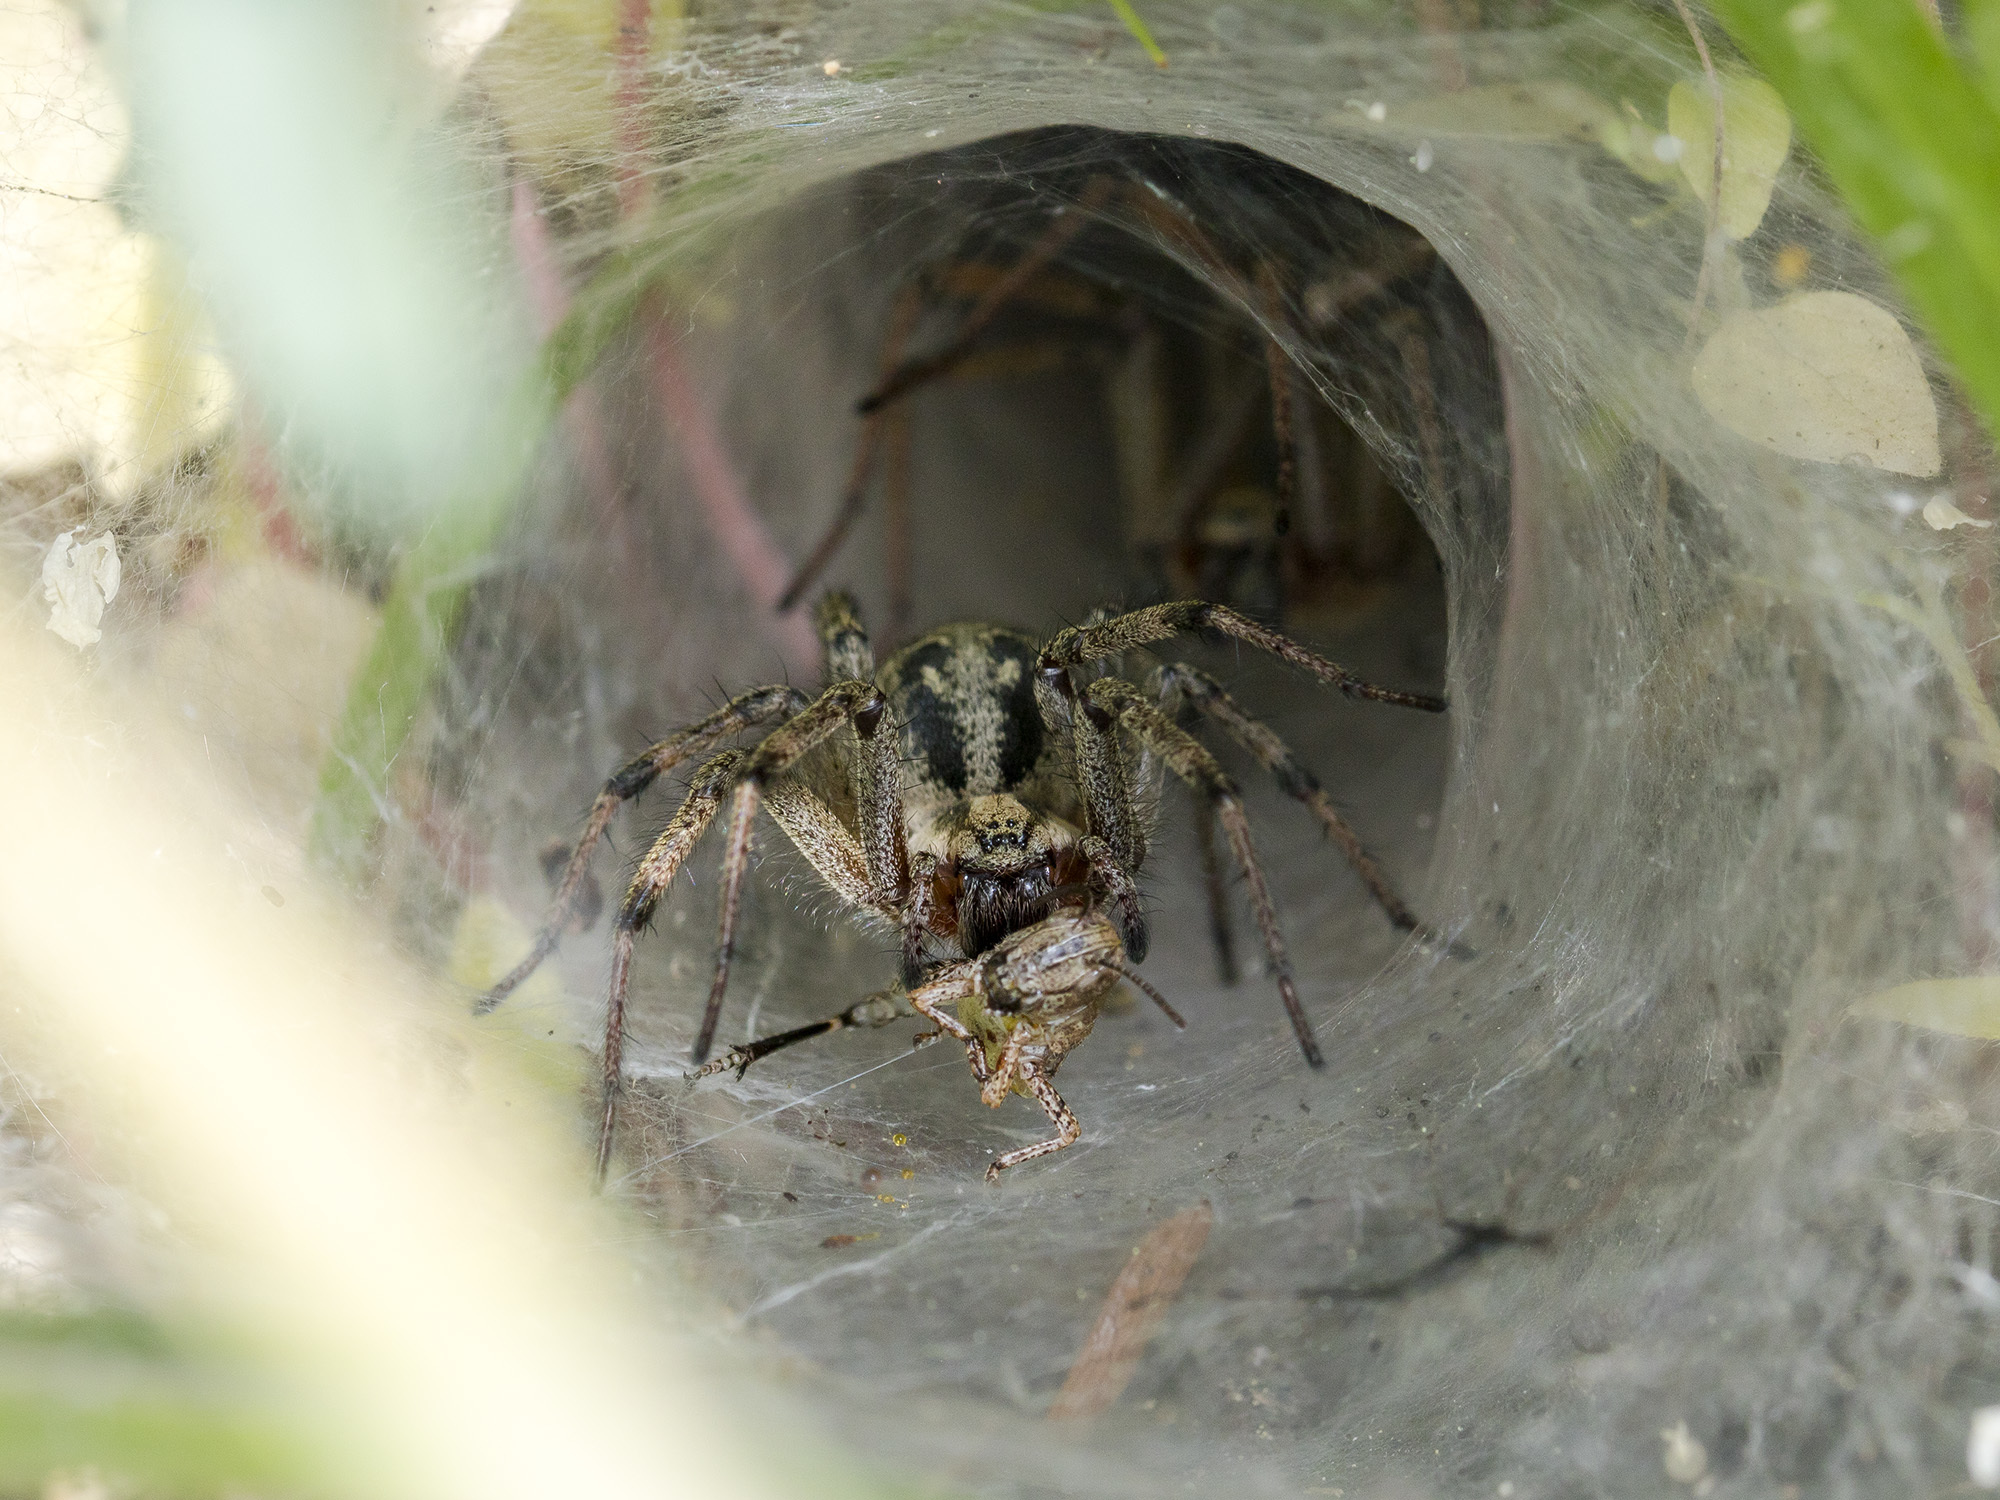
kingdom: Animalia
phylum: Arthropoda
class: Arachnida
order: Araneae
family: Agelenidae
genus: Agelena
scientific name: Agelena labyrinthica
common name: Labyrinth spider
